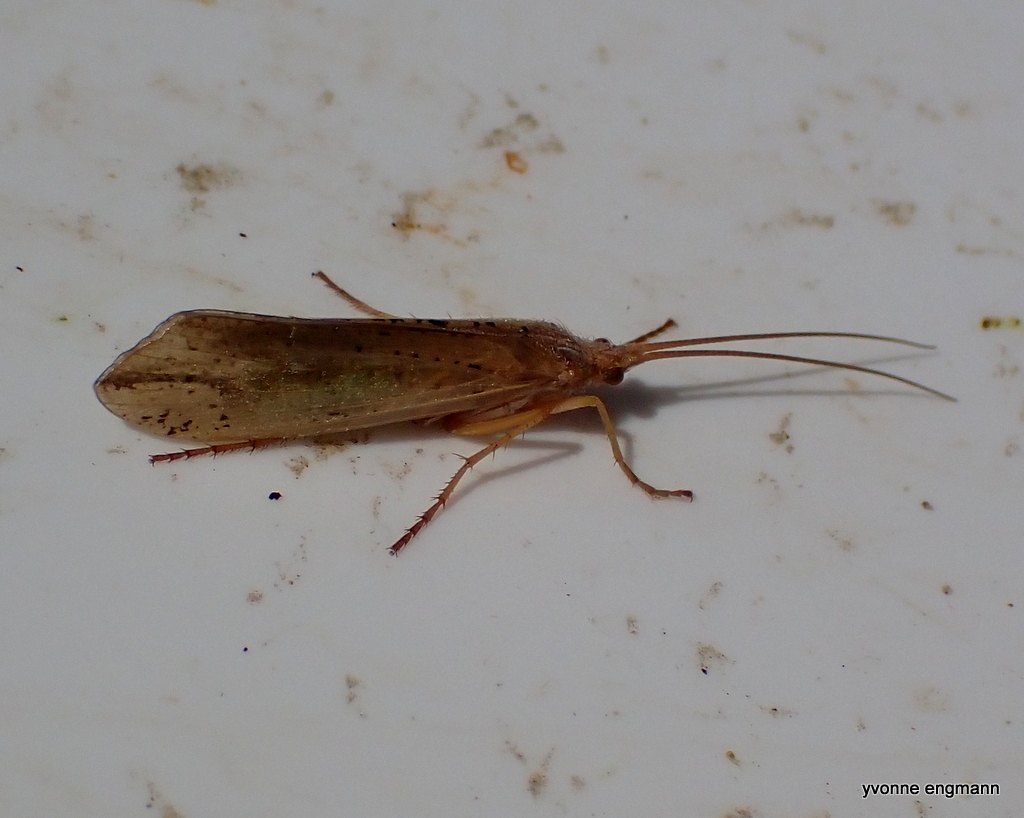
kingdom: Animalia
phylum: Arthropoda
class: Insecta
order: Trichoptera
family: Limnephilidae
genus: Grammotaulius
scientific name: Grammotaulius nigropunctatus
